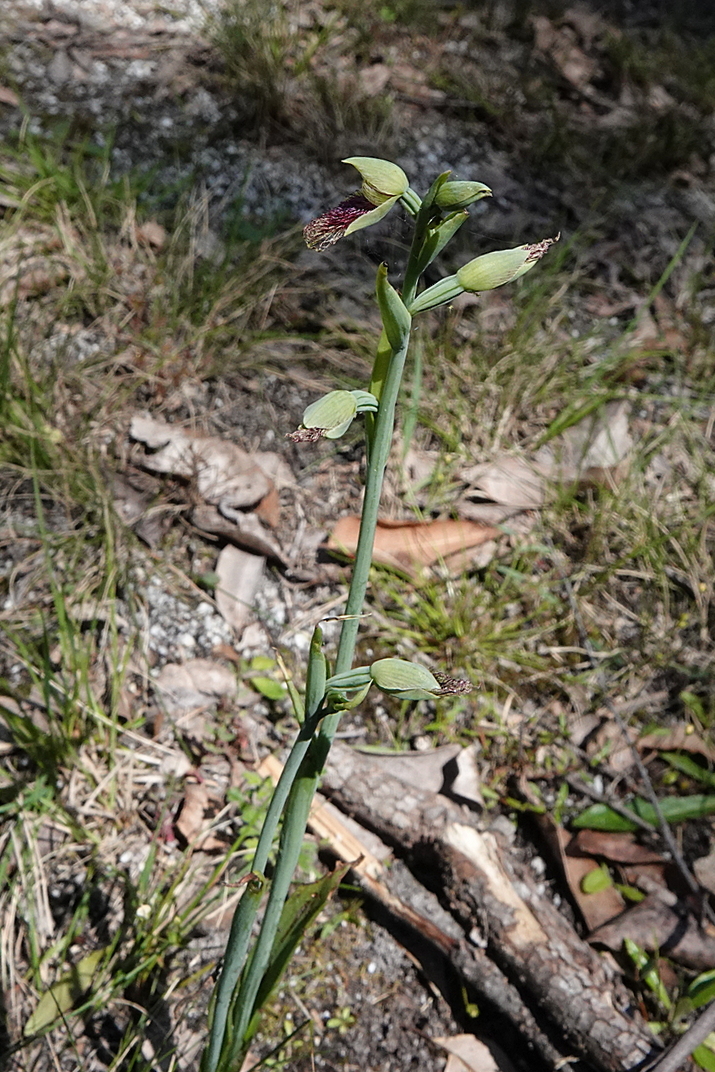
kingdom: Plantae
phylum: Tracheophyta
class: Liliopsida
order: Asparagales
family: Orchidaceae
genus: Calochilus
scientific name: Calochilus robertsonii
